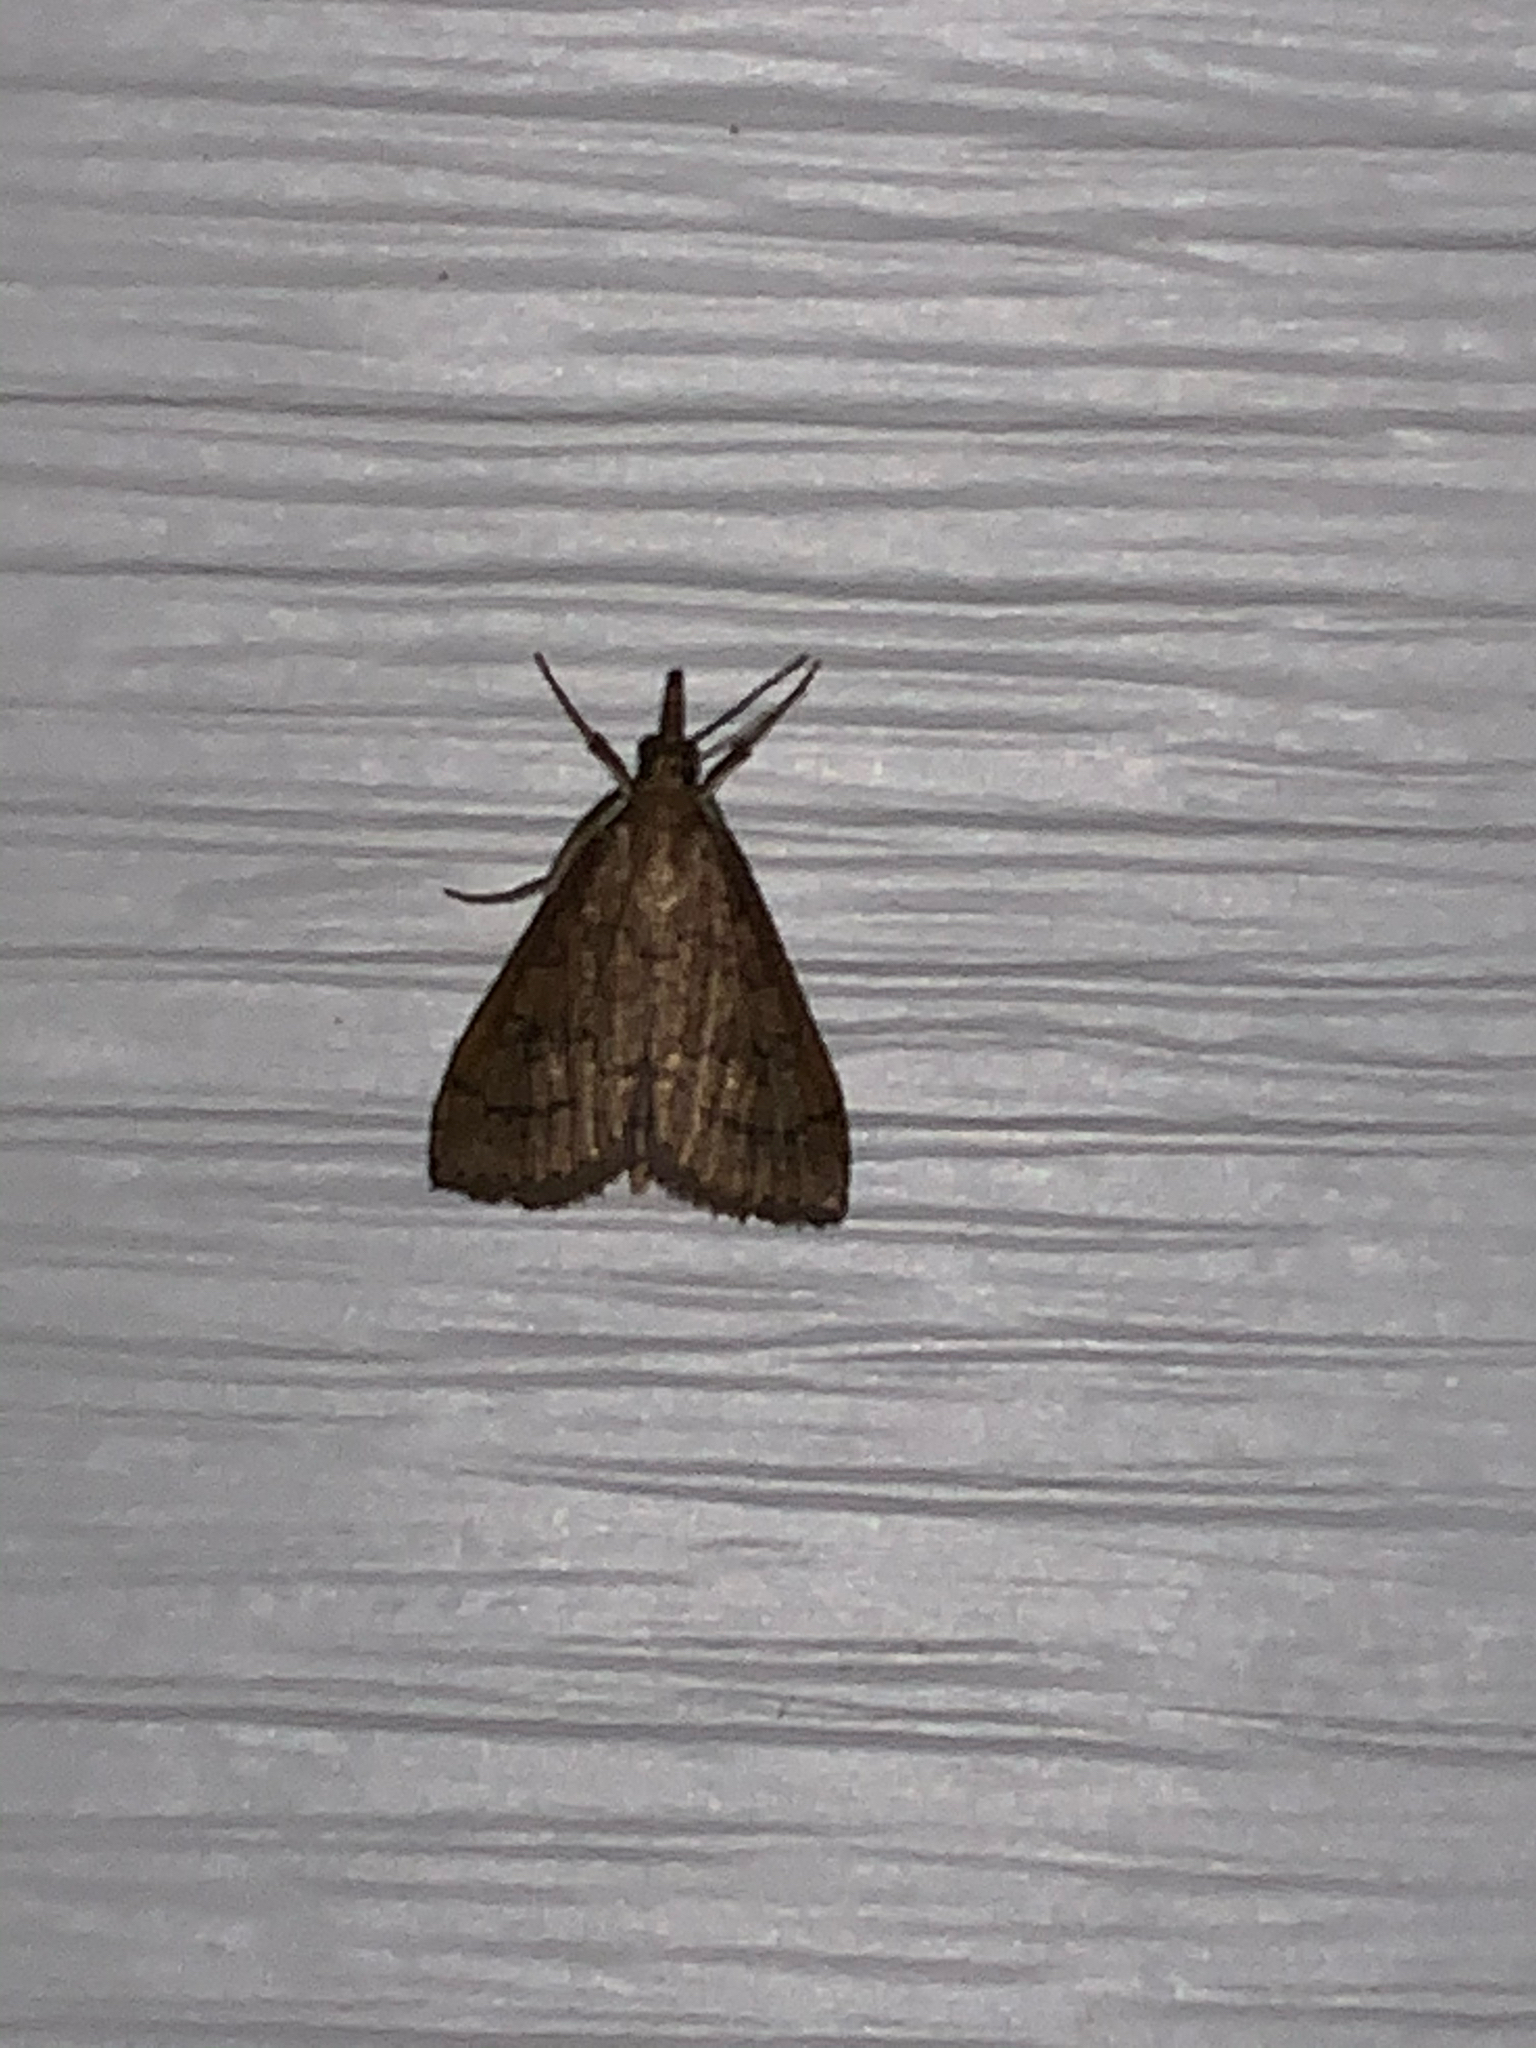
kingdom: Animalia
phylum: Arthropoda
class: Insecta
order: Lepidoptera
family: Crambidae
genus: Udea
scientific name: Udea rubigalis
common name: Celery leaftier moth
